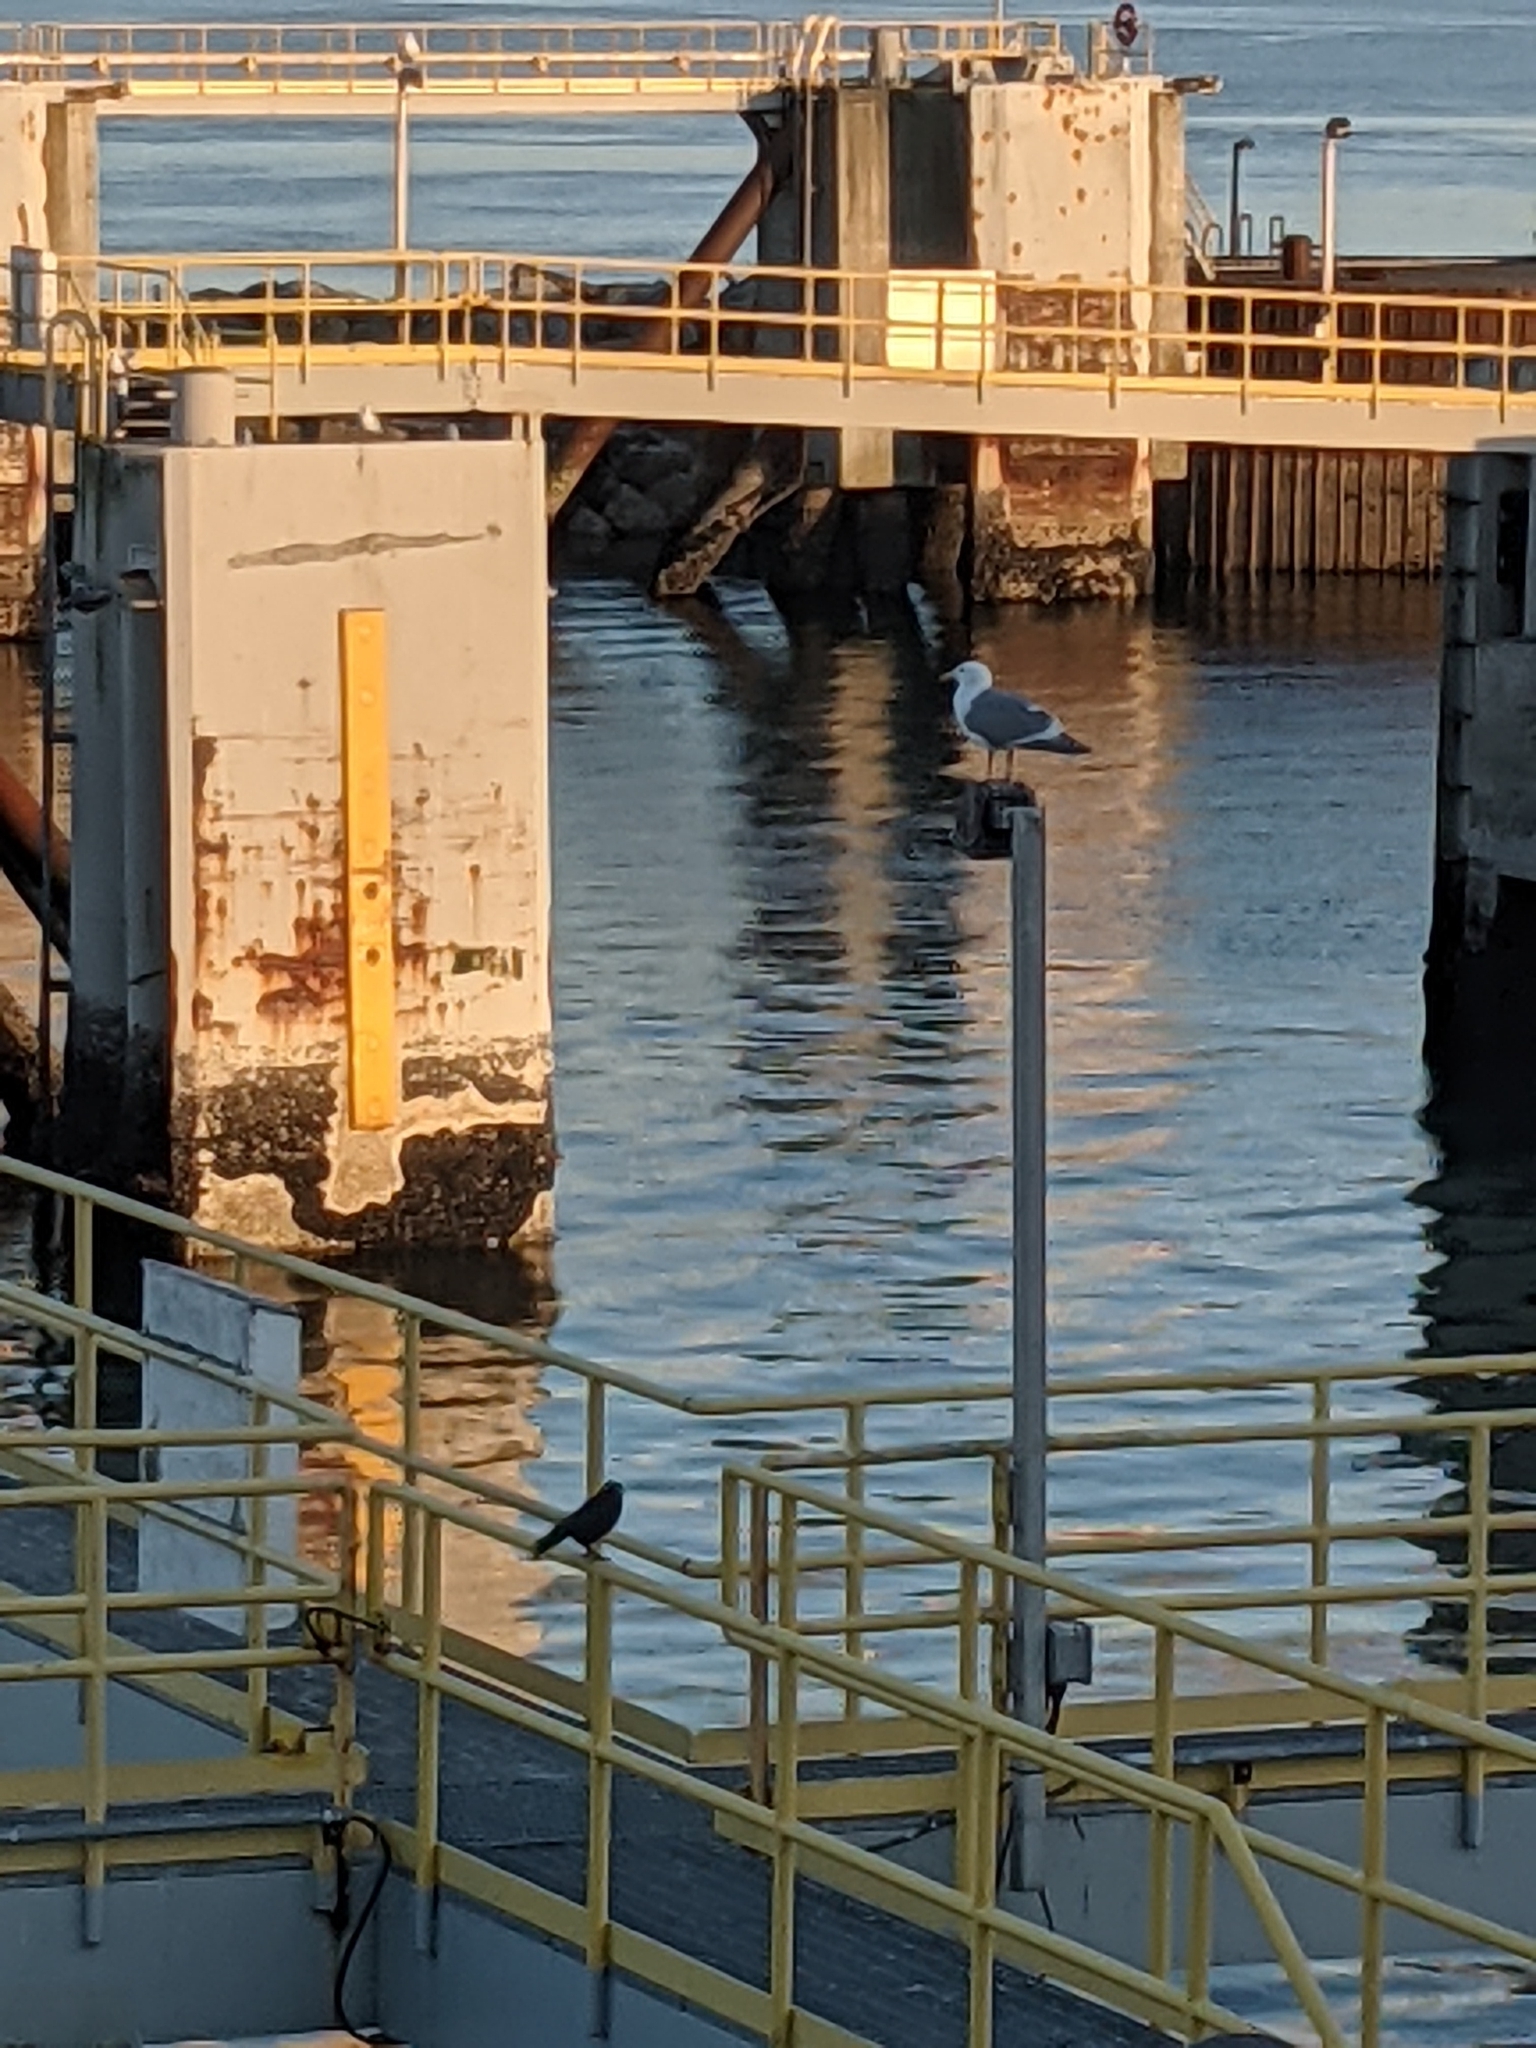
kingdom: Animalia
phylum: Chordata
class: Aves
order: Passeriformes
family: Corvidae
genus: Corvus
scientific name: Corvus brachyrhynchos
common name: American crow
